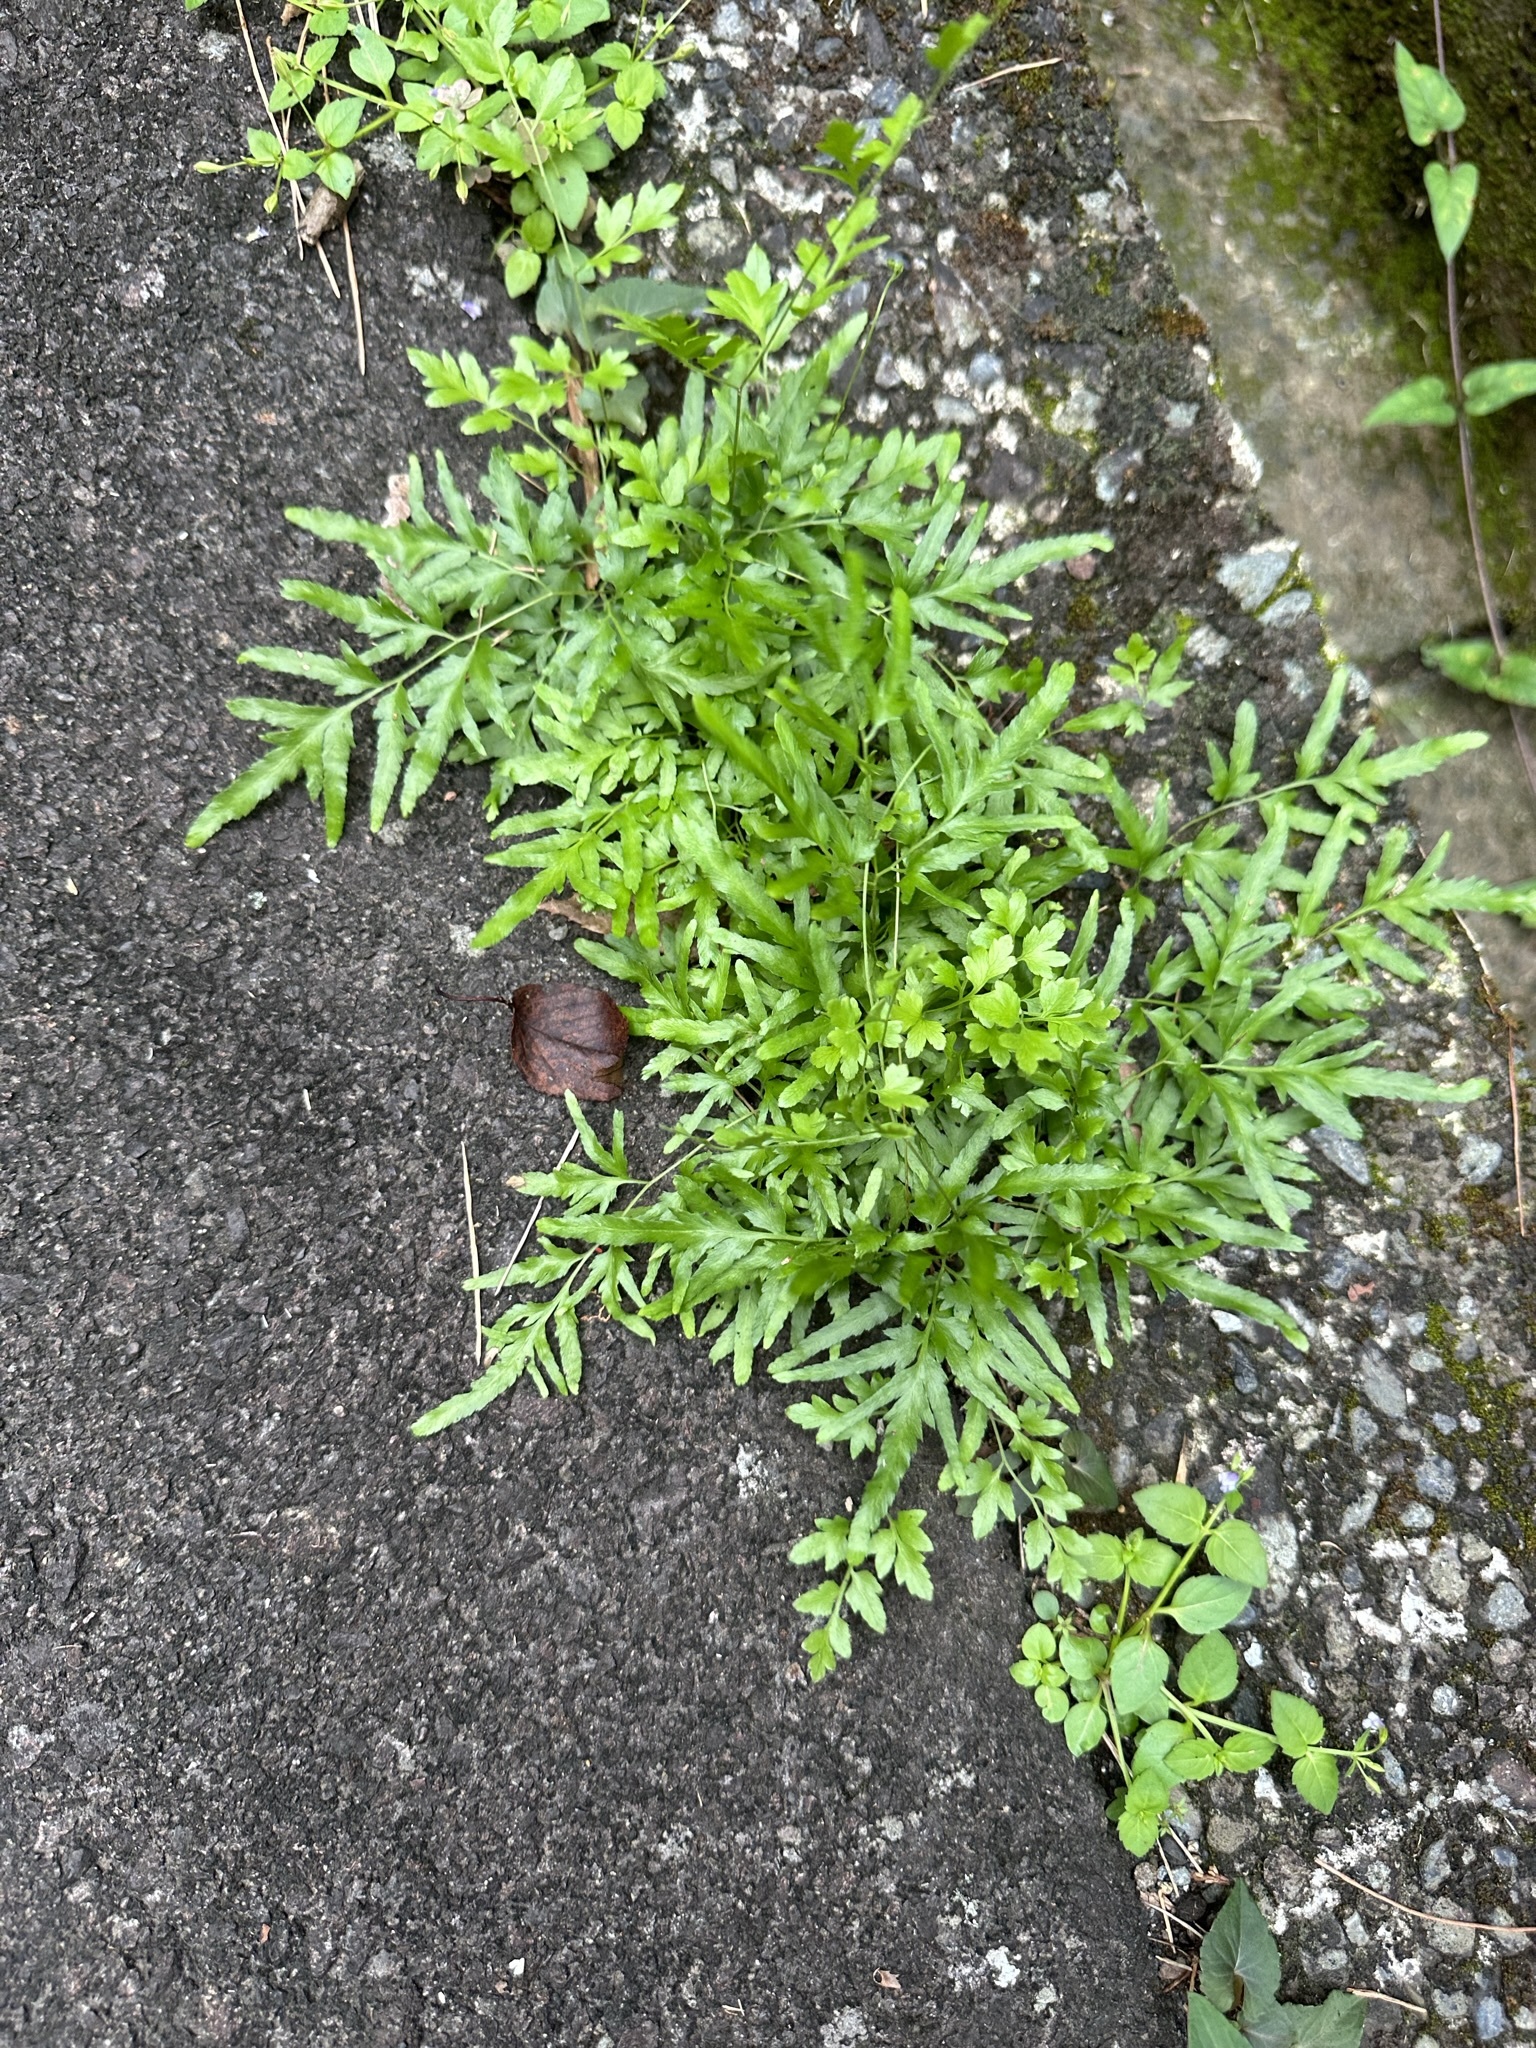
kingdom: Plantae
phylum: Tracheophyta
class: Polypodiopsida
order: Schizaeales
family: Lygodiaceae
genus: Lygodium
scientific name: Lygodium japonicum
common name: Japanese climbing fern
